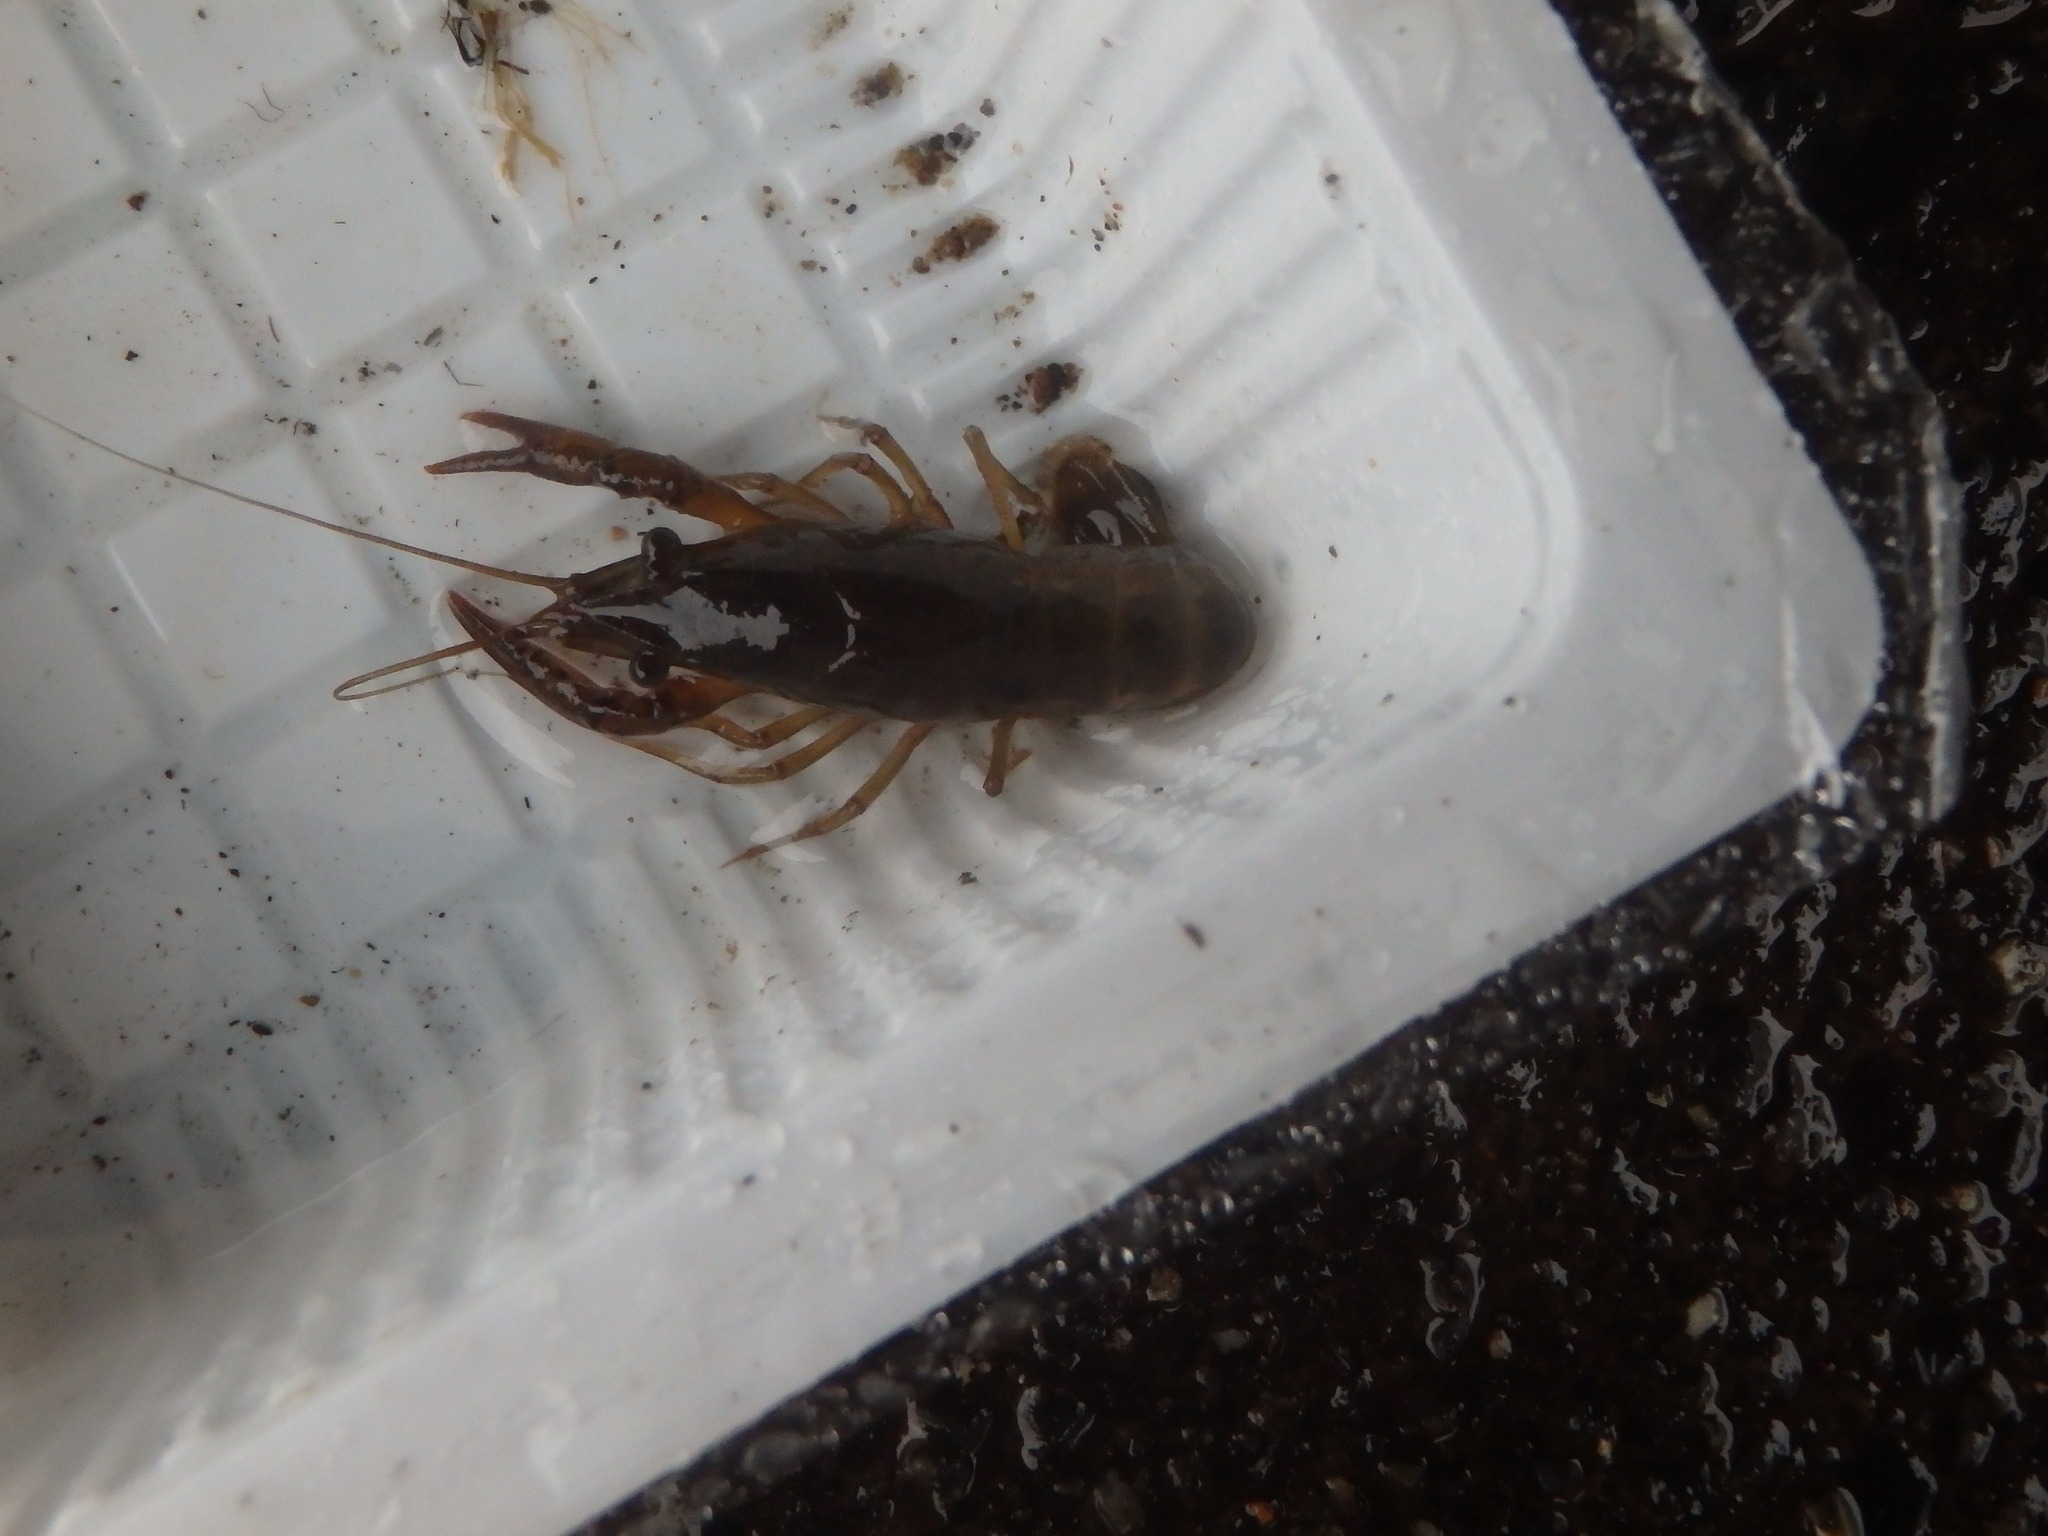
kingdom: Animalia
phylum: Arthropoda
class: Malacostraca
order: Decapoda
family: Cambaridae
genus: Procambarus
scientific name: Procambarus clarkii
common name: Red swamp crayfish
